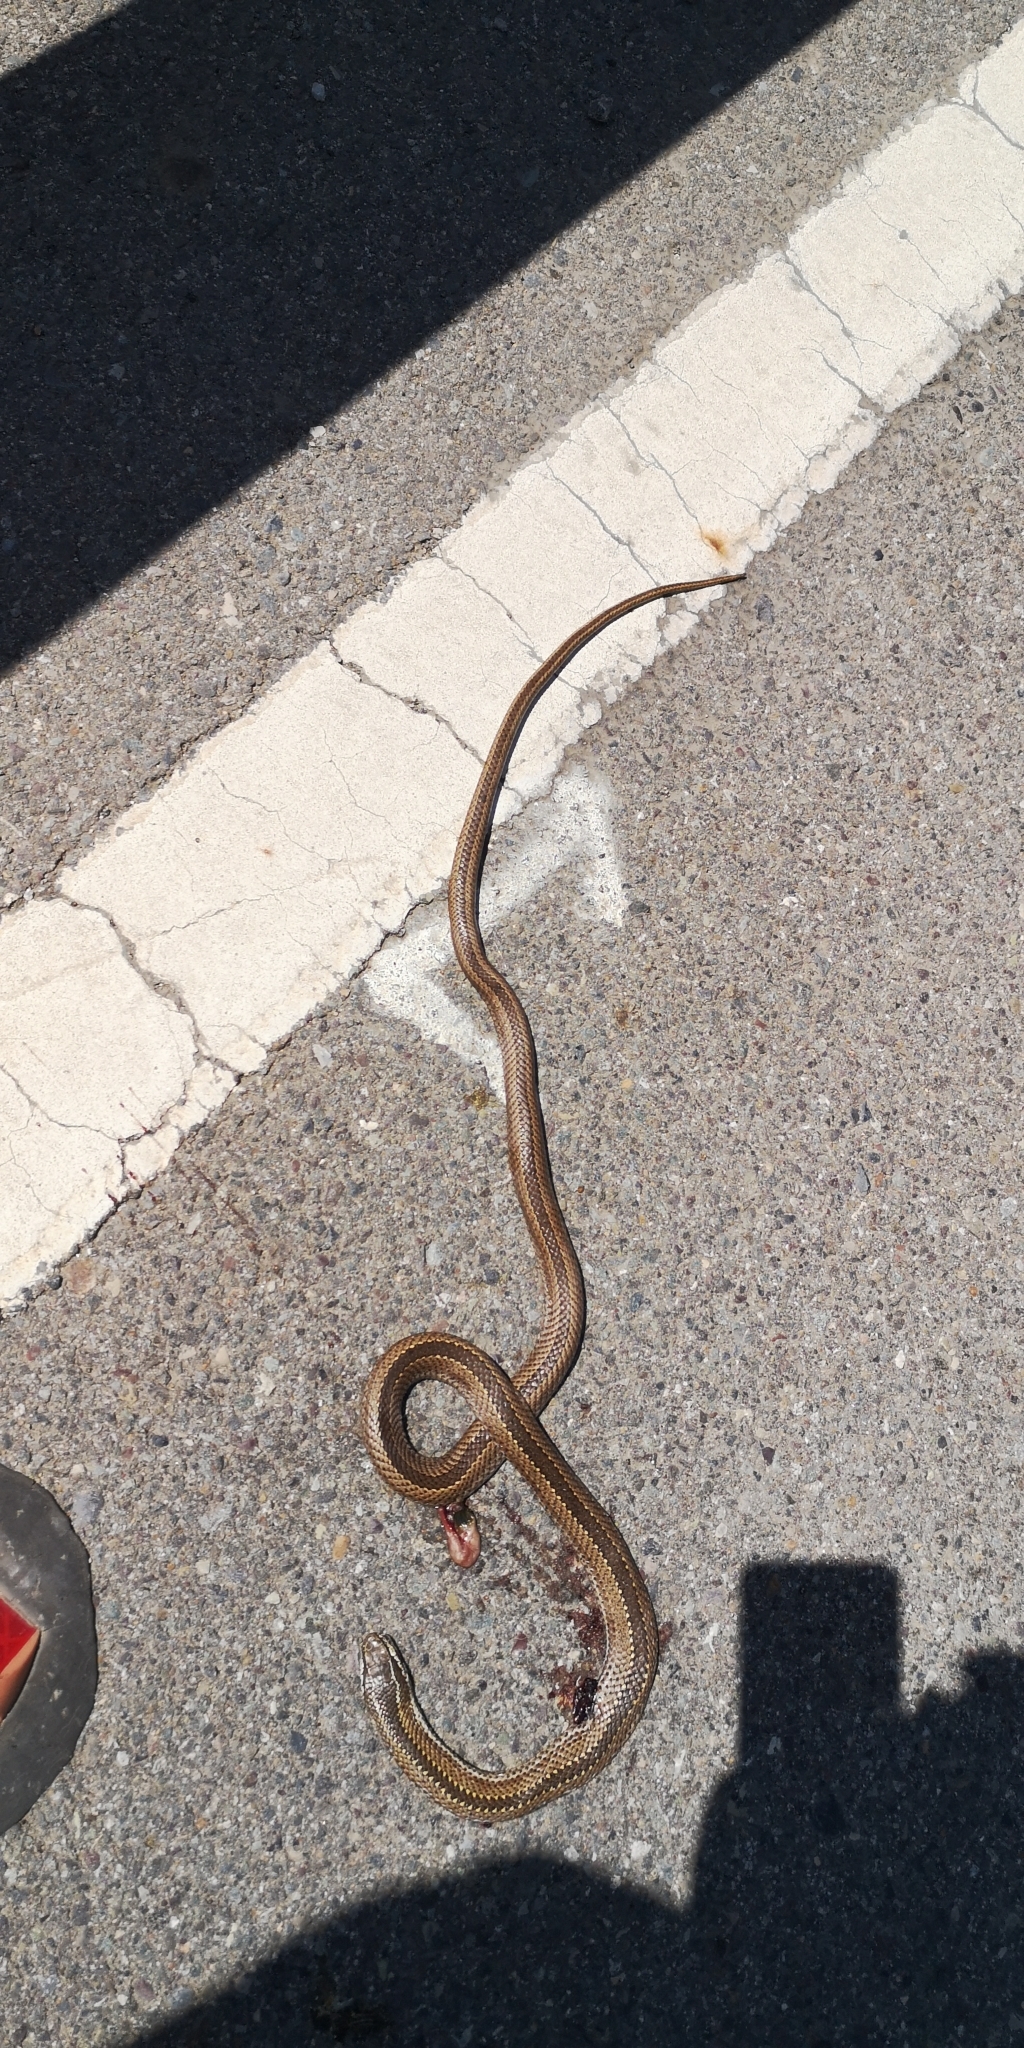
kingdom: Animalia
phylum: Chordata
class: Squamata
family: Colubridae
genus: Philodryas
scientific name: Philodryas chamissonis
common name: Chilean green racer
